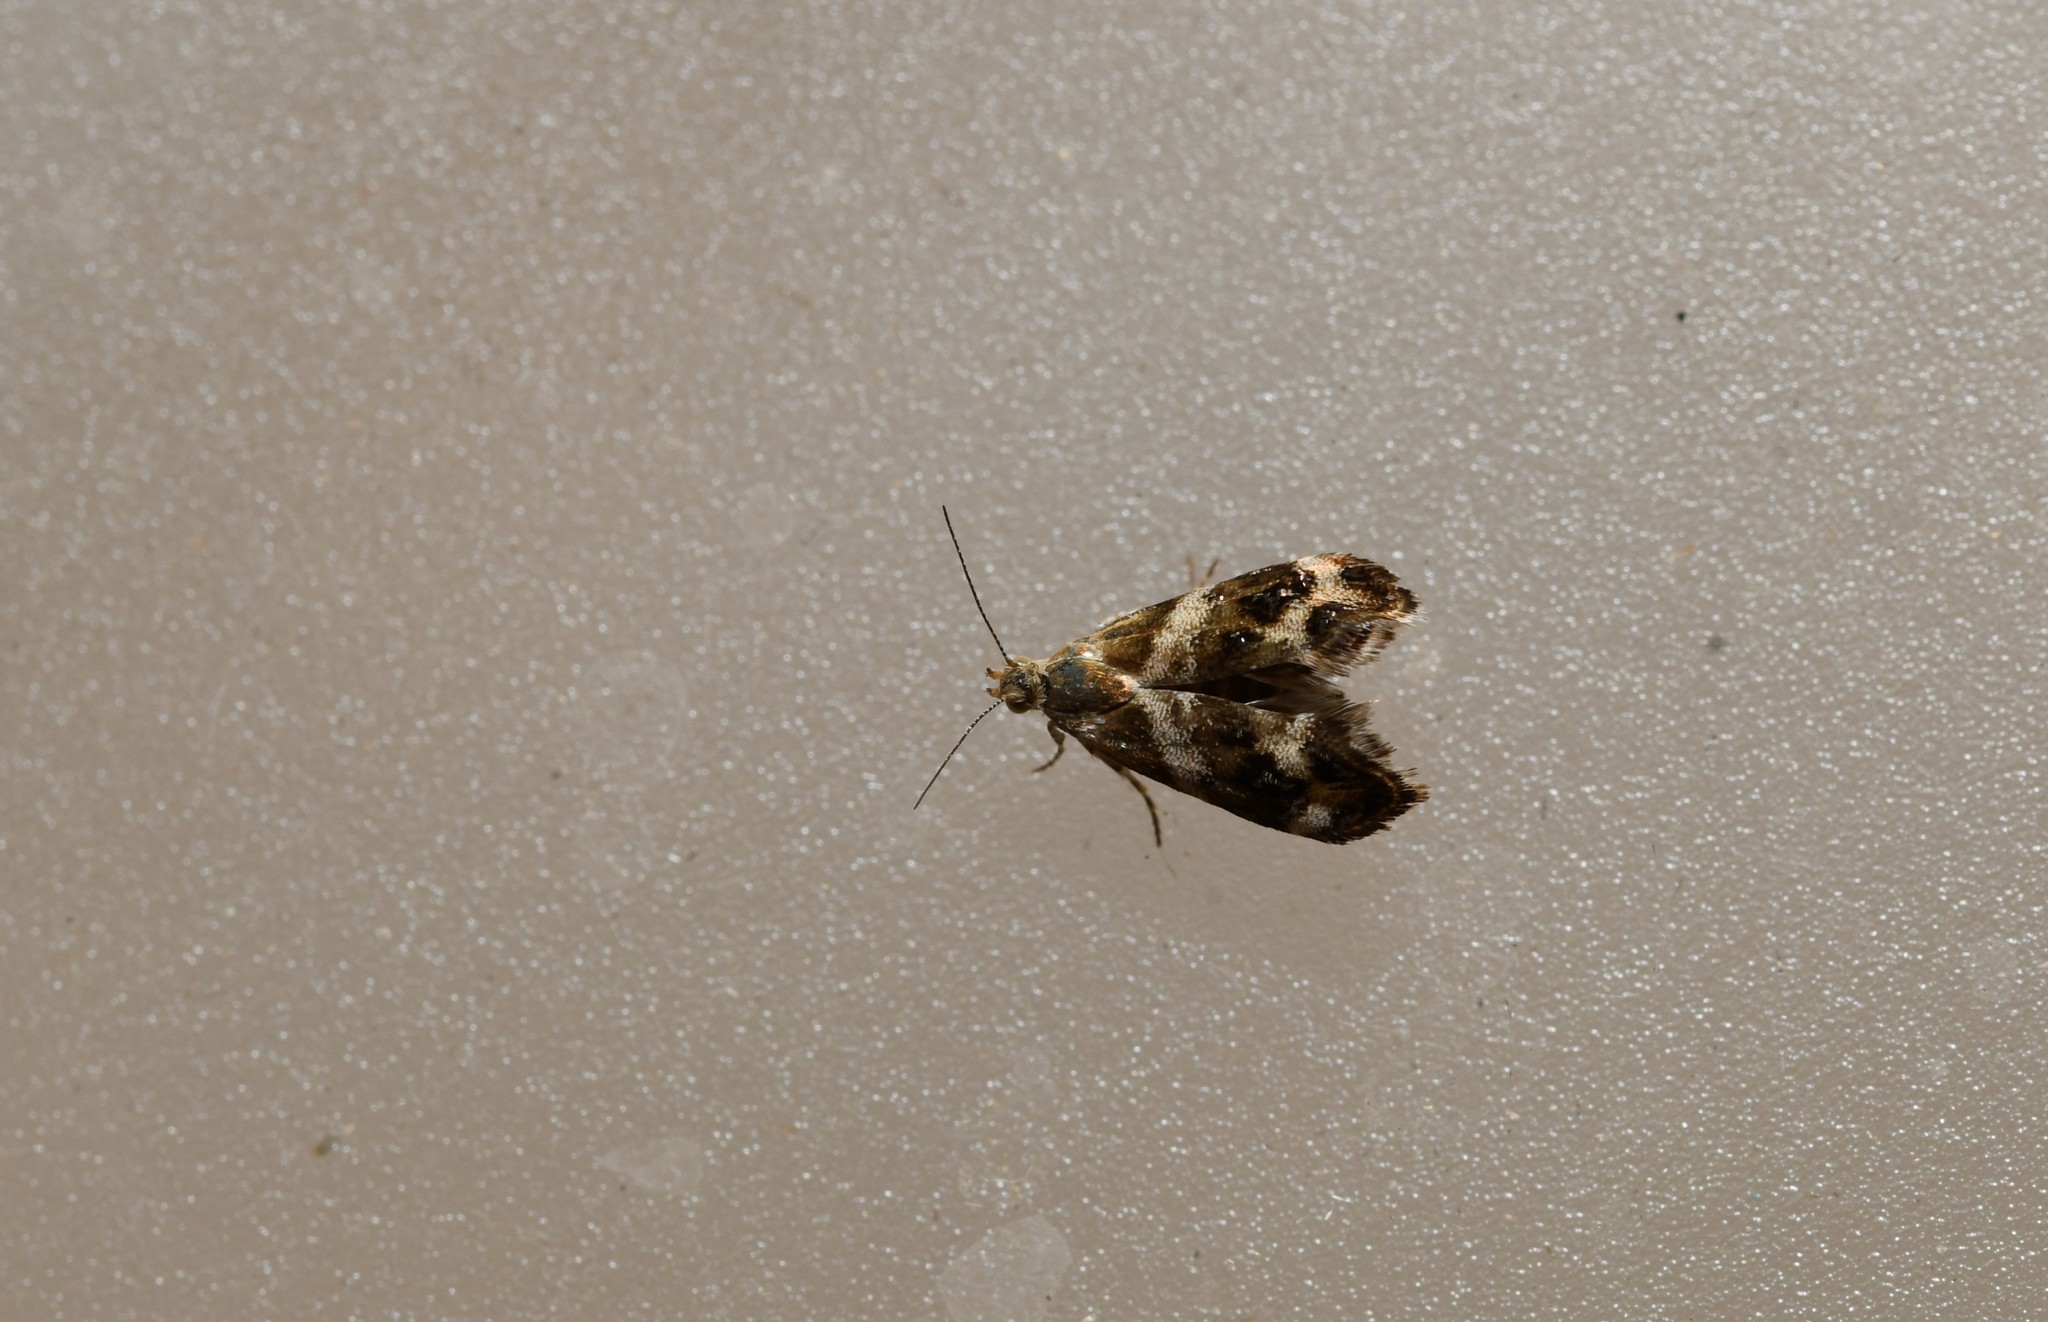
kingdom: Animalia
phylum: Arthropoda
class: Insecta
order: Lepidoptera
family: Choreutidae
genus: Tebenna
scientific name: Tebenna micalis
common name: Vagrant twitcher
